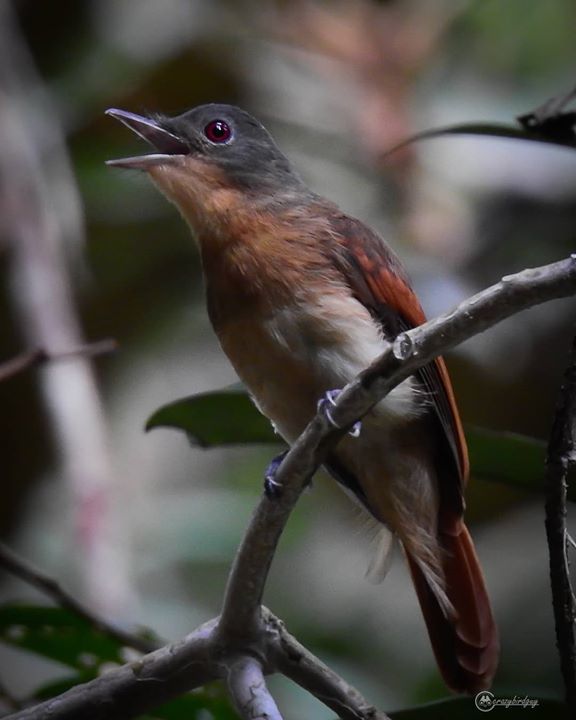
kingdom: Animalia
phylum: Chordata
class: Aves
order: Passeriformes
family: Tephrodornithidae
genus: Philentoma
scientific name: Philentoma pyrhoptera
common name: Rufous-winged philentoma
